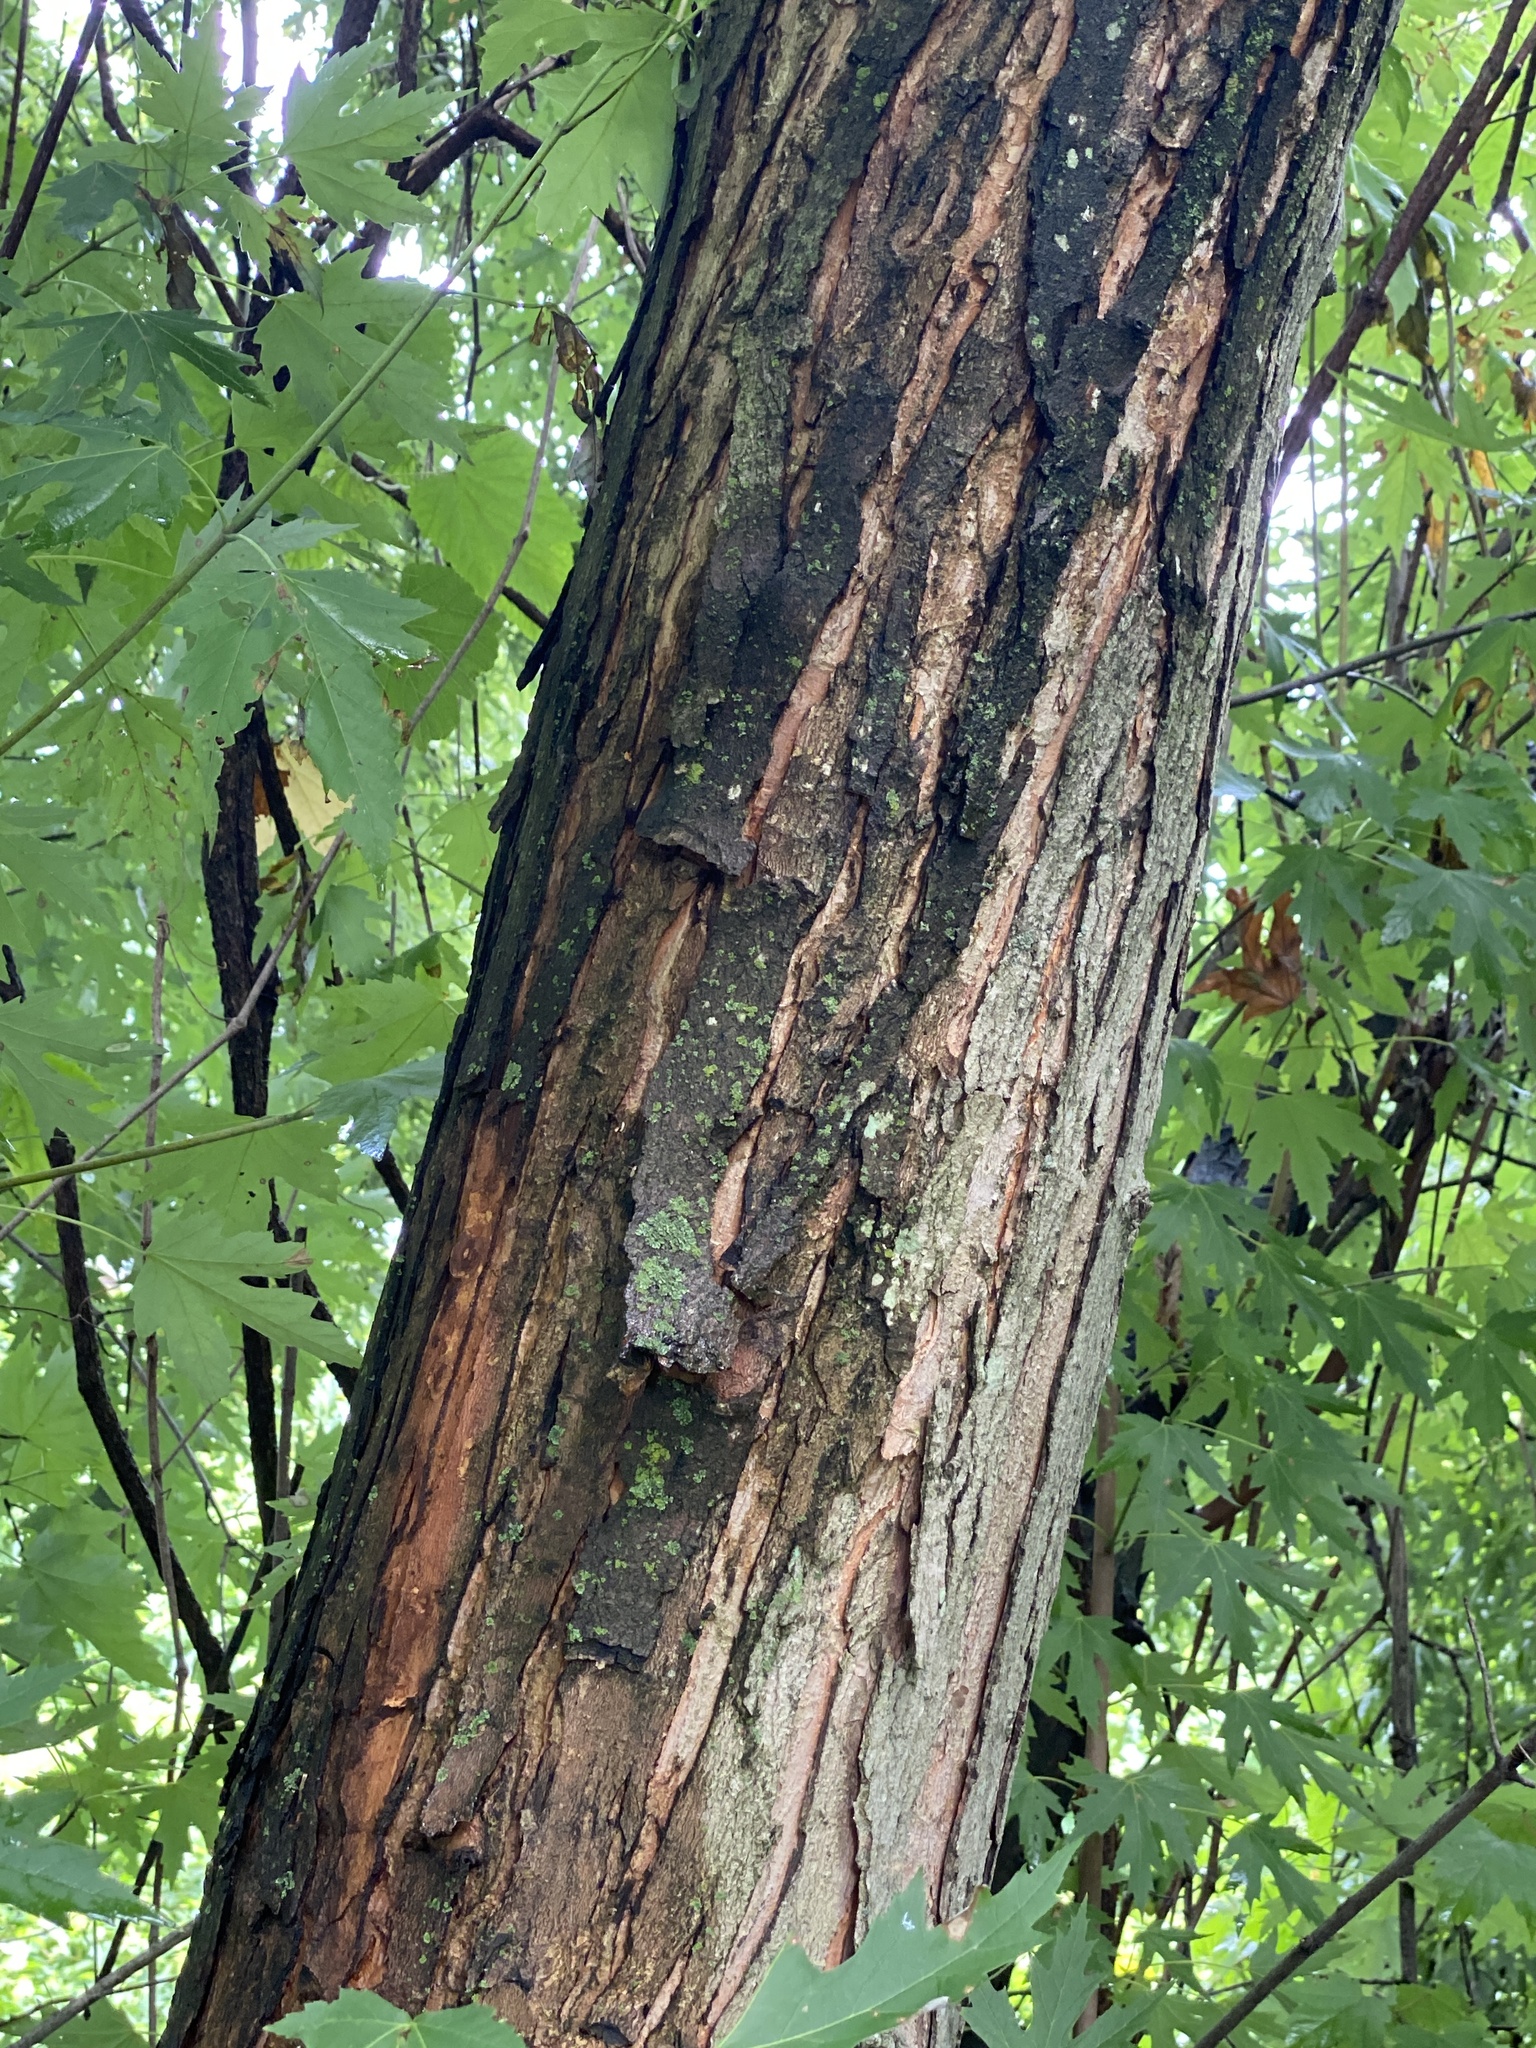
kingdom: Plantae
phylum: Tracheophyta
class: Magnoliopsida
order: Sapindales
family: Sapindaceae
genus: Acer
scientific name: Acer saccharinum
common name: Silver maple
